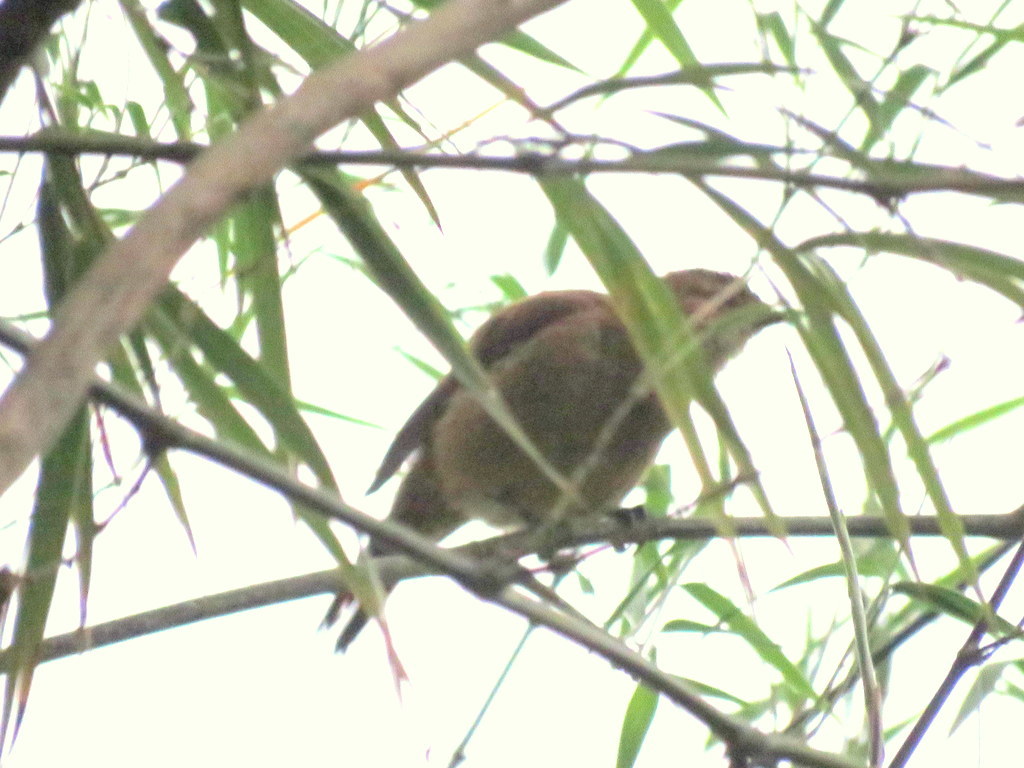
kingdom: Animalia
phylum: Chordata
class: Aves
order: Passeriformes
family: Furnariidae
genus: Furnarius
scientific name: Furnarius rufus
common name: Rufous hornero
